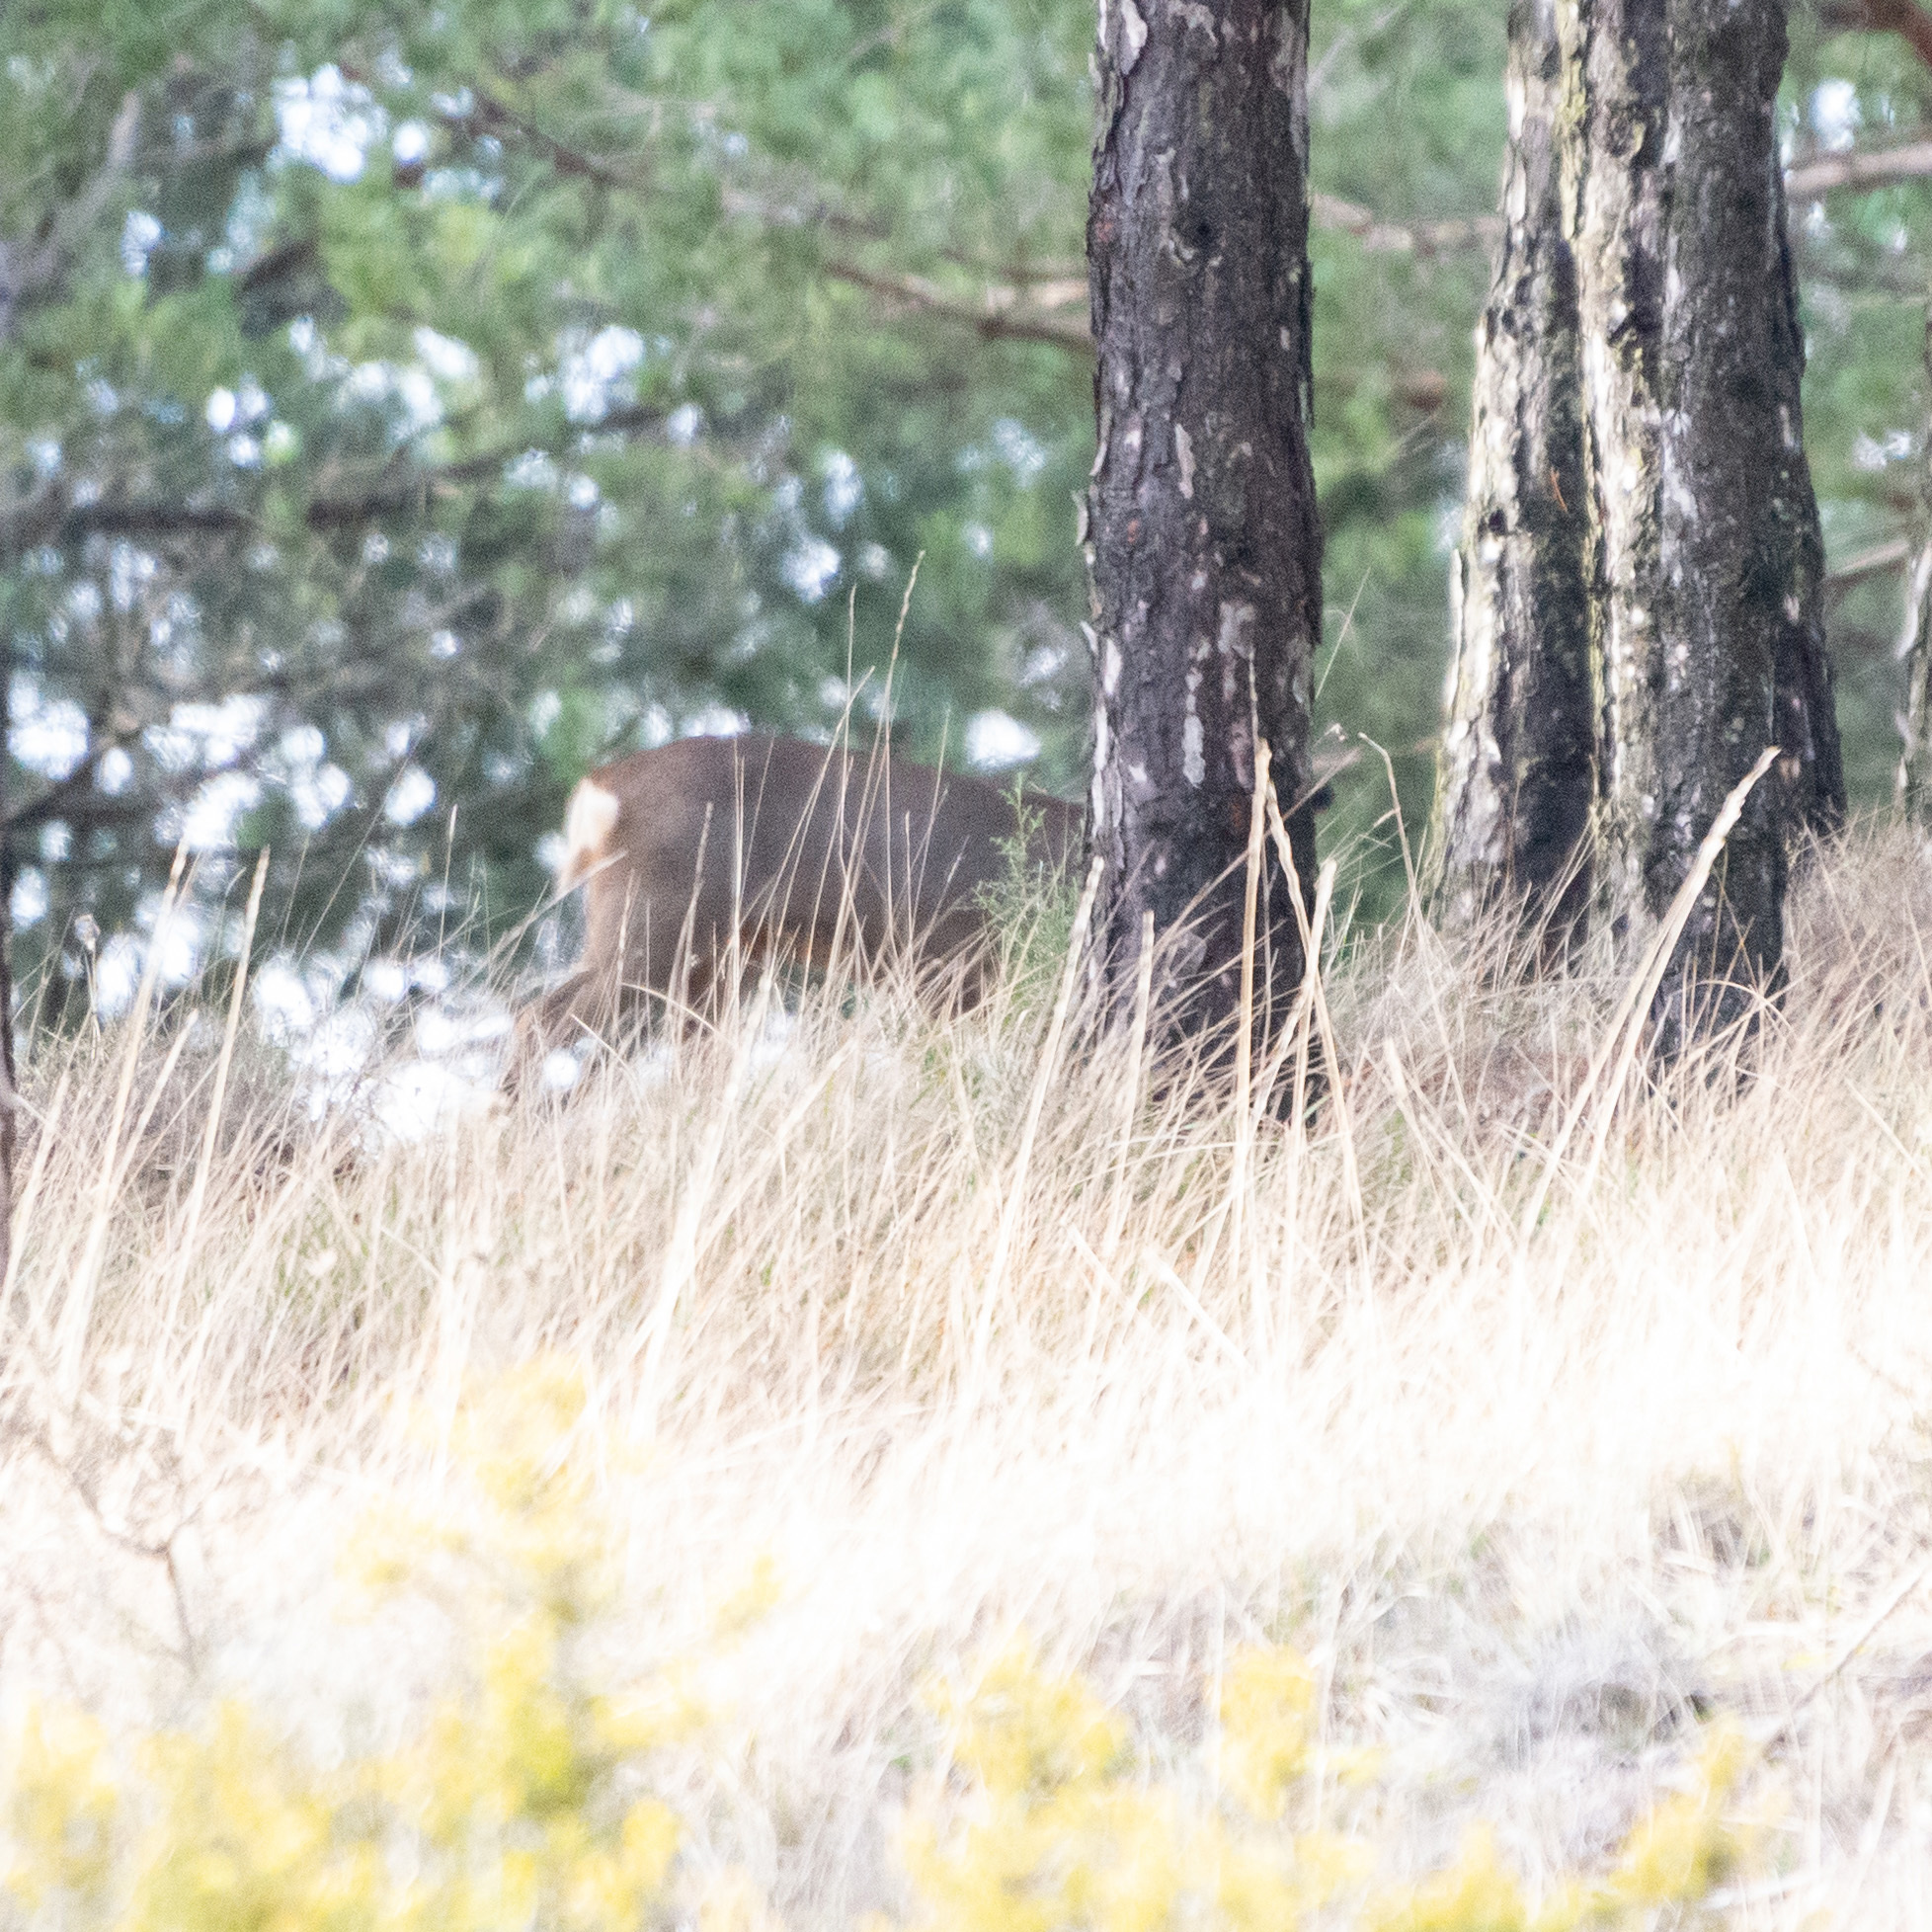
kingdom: Animalia
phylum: Chordata
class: Mammalia
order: Artiodactyla
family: Cervidae
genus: Capreolus
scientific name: Capreolus capreolus
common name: Western roe deer
